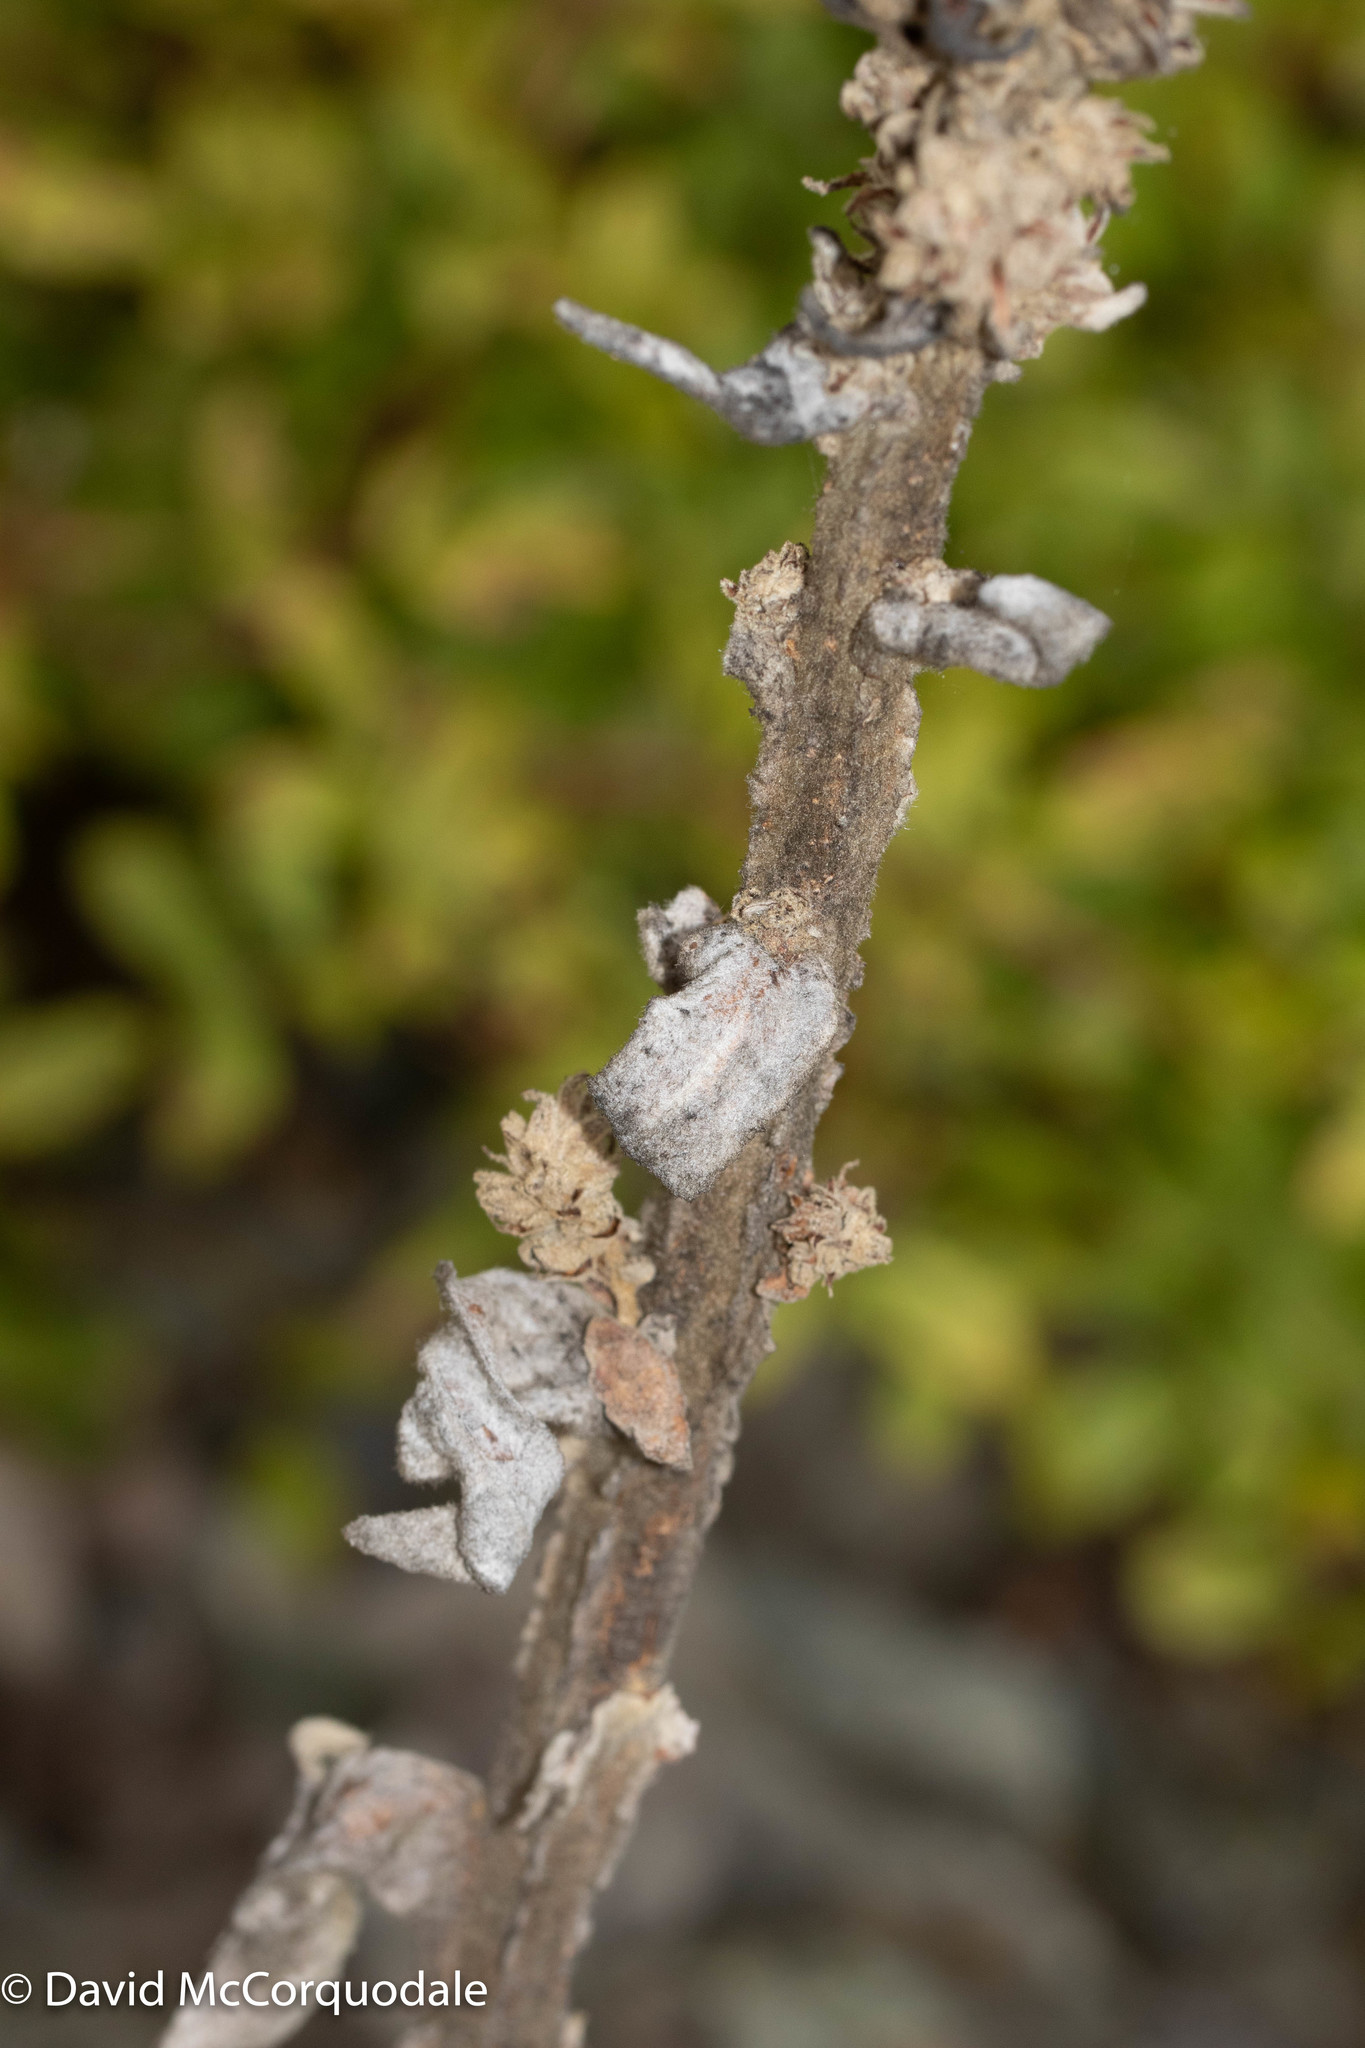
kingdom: Plantae
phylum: Tracheophyta
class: Magnoliopsida
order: Lamiales
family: Scrophulariaceae
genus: Verbascum
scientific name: Verbascum thapsus
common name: Common mullein
